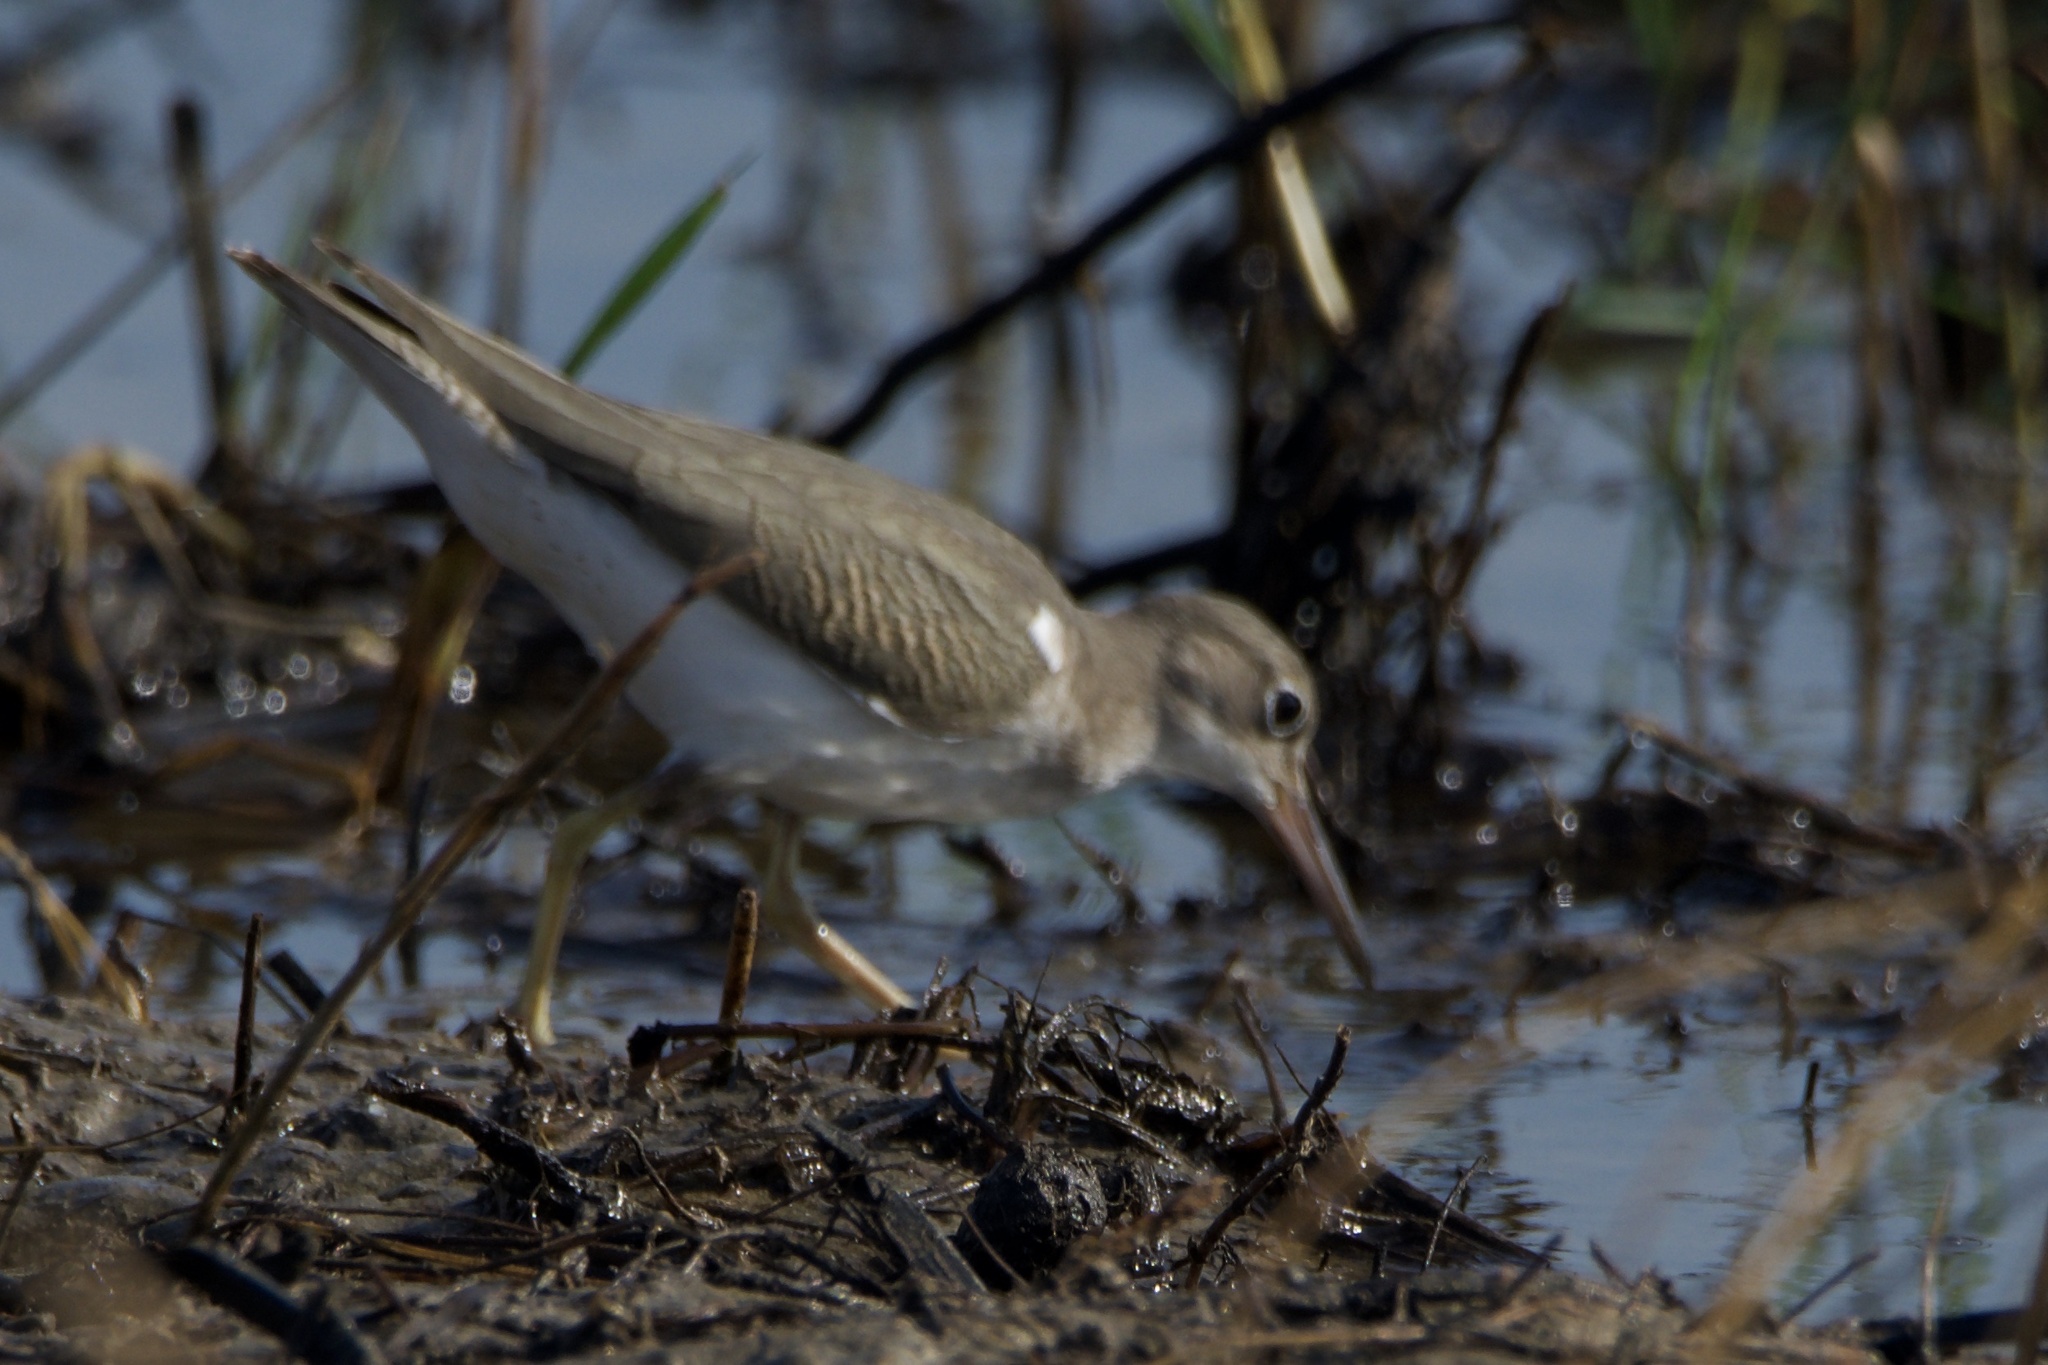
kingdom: Animalia
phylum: Chordata
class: Aves
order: Charadriiformes
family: Scolopacidae
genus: Actitis
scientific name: Actitis macularius
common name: Spotted sandpiper
